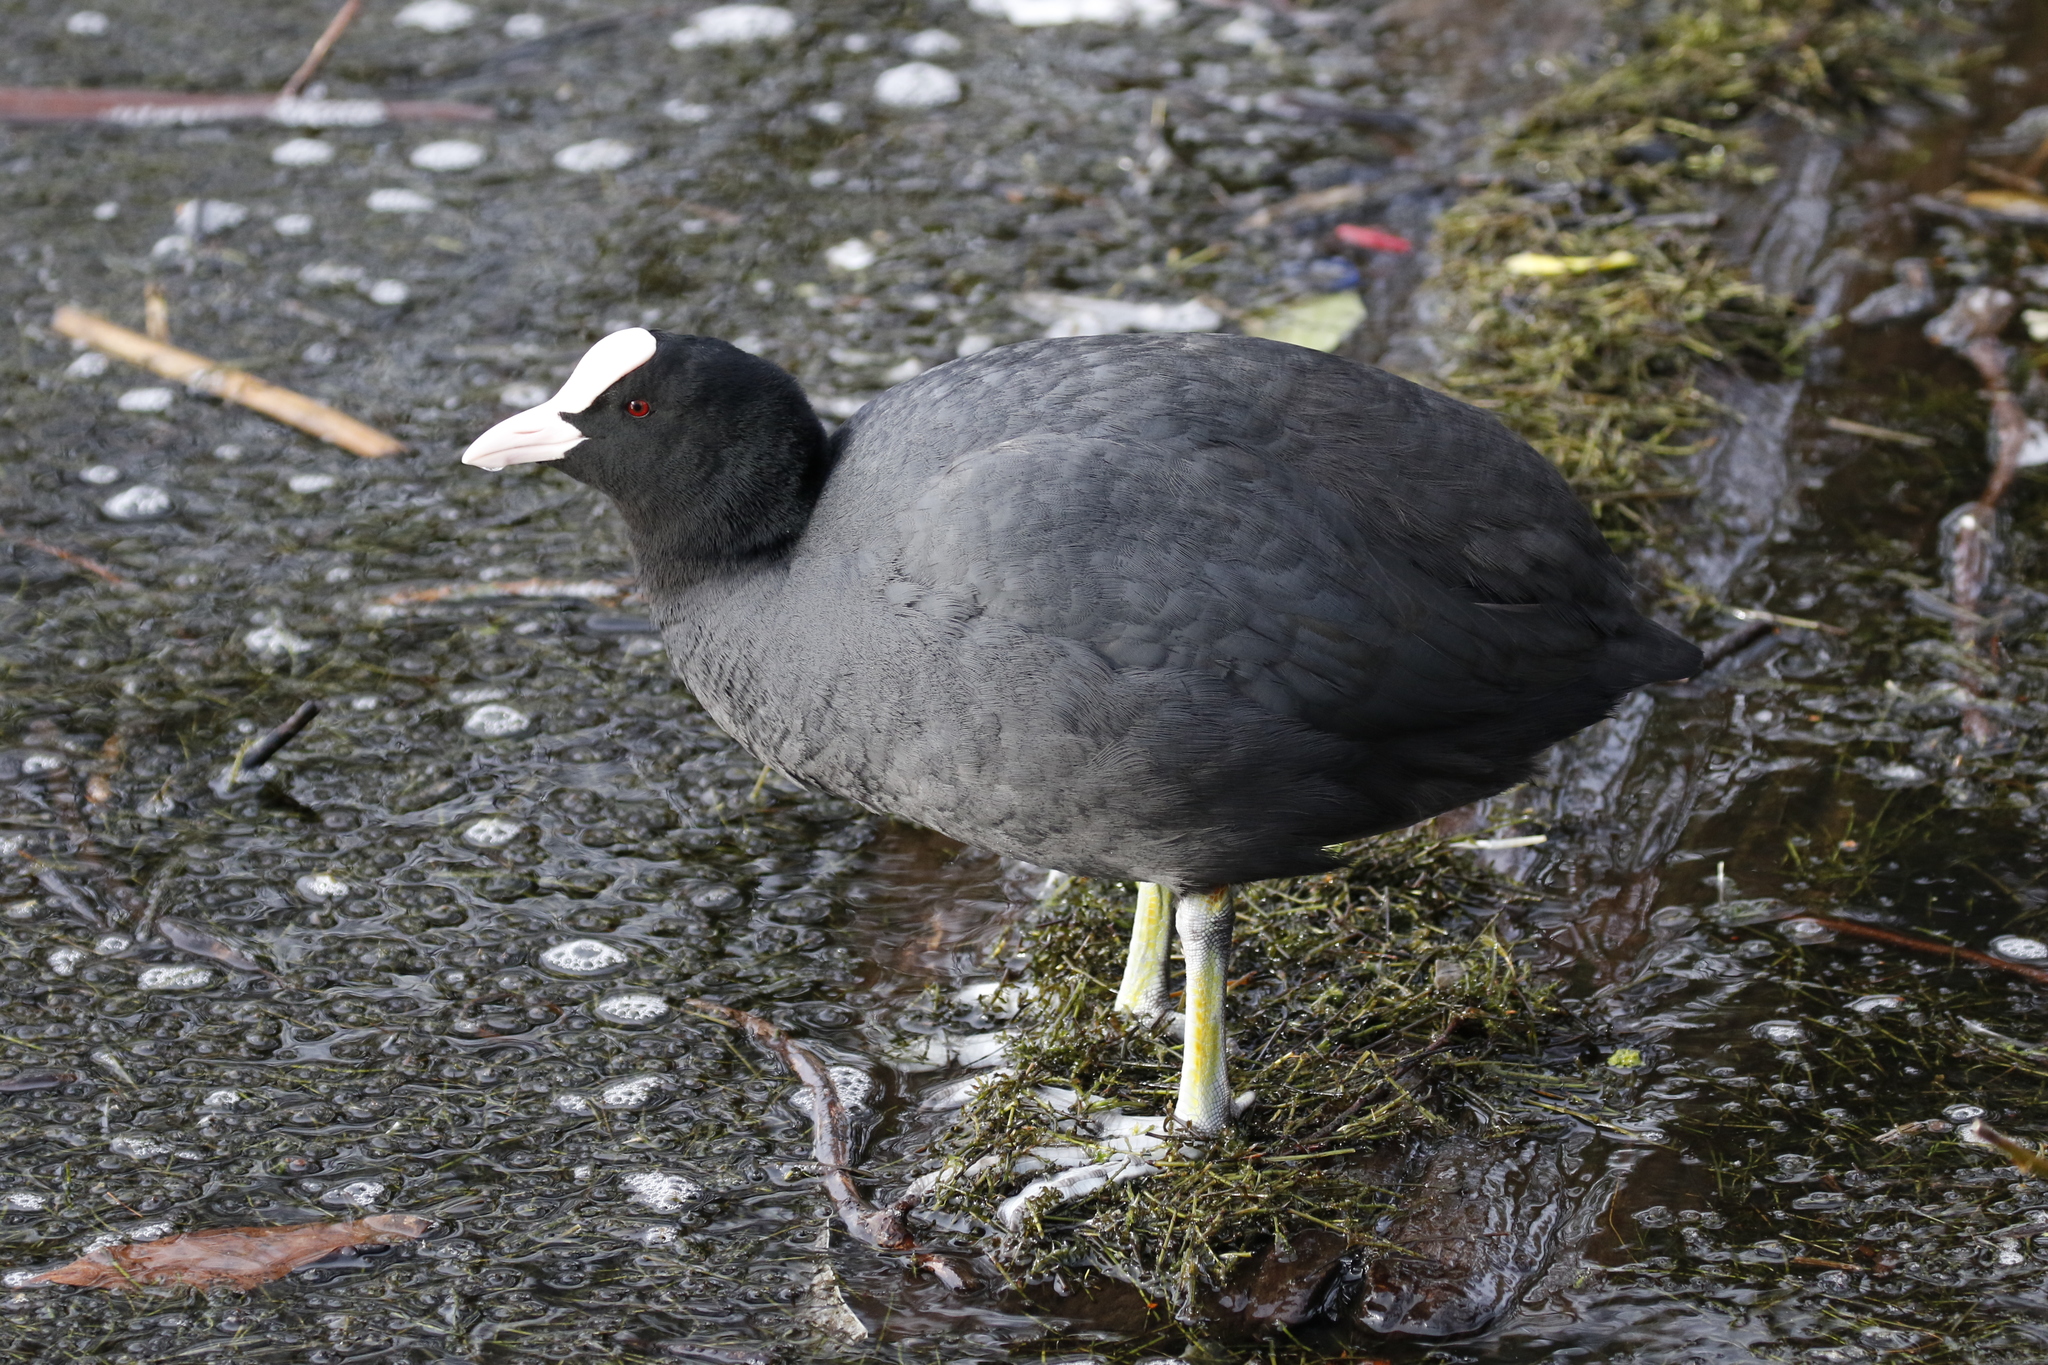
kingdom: Animalia
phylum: Chordata
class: Aves
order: Gruiformes
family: Rallidae
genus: Fulica
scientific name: Fulica atra
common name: Eurasian coot
